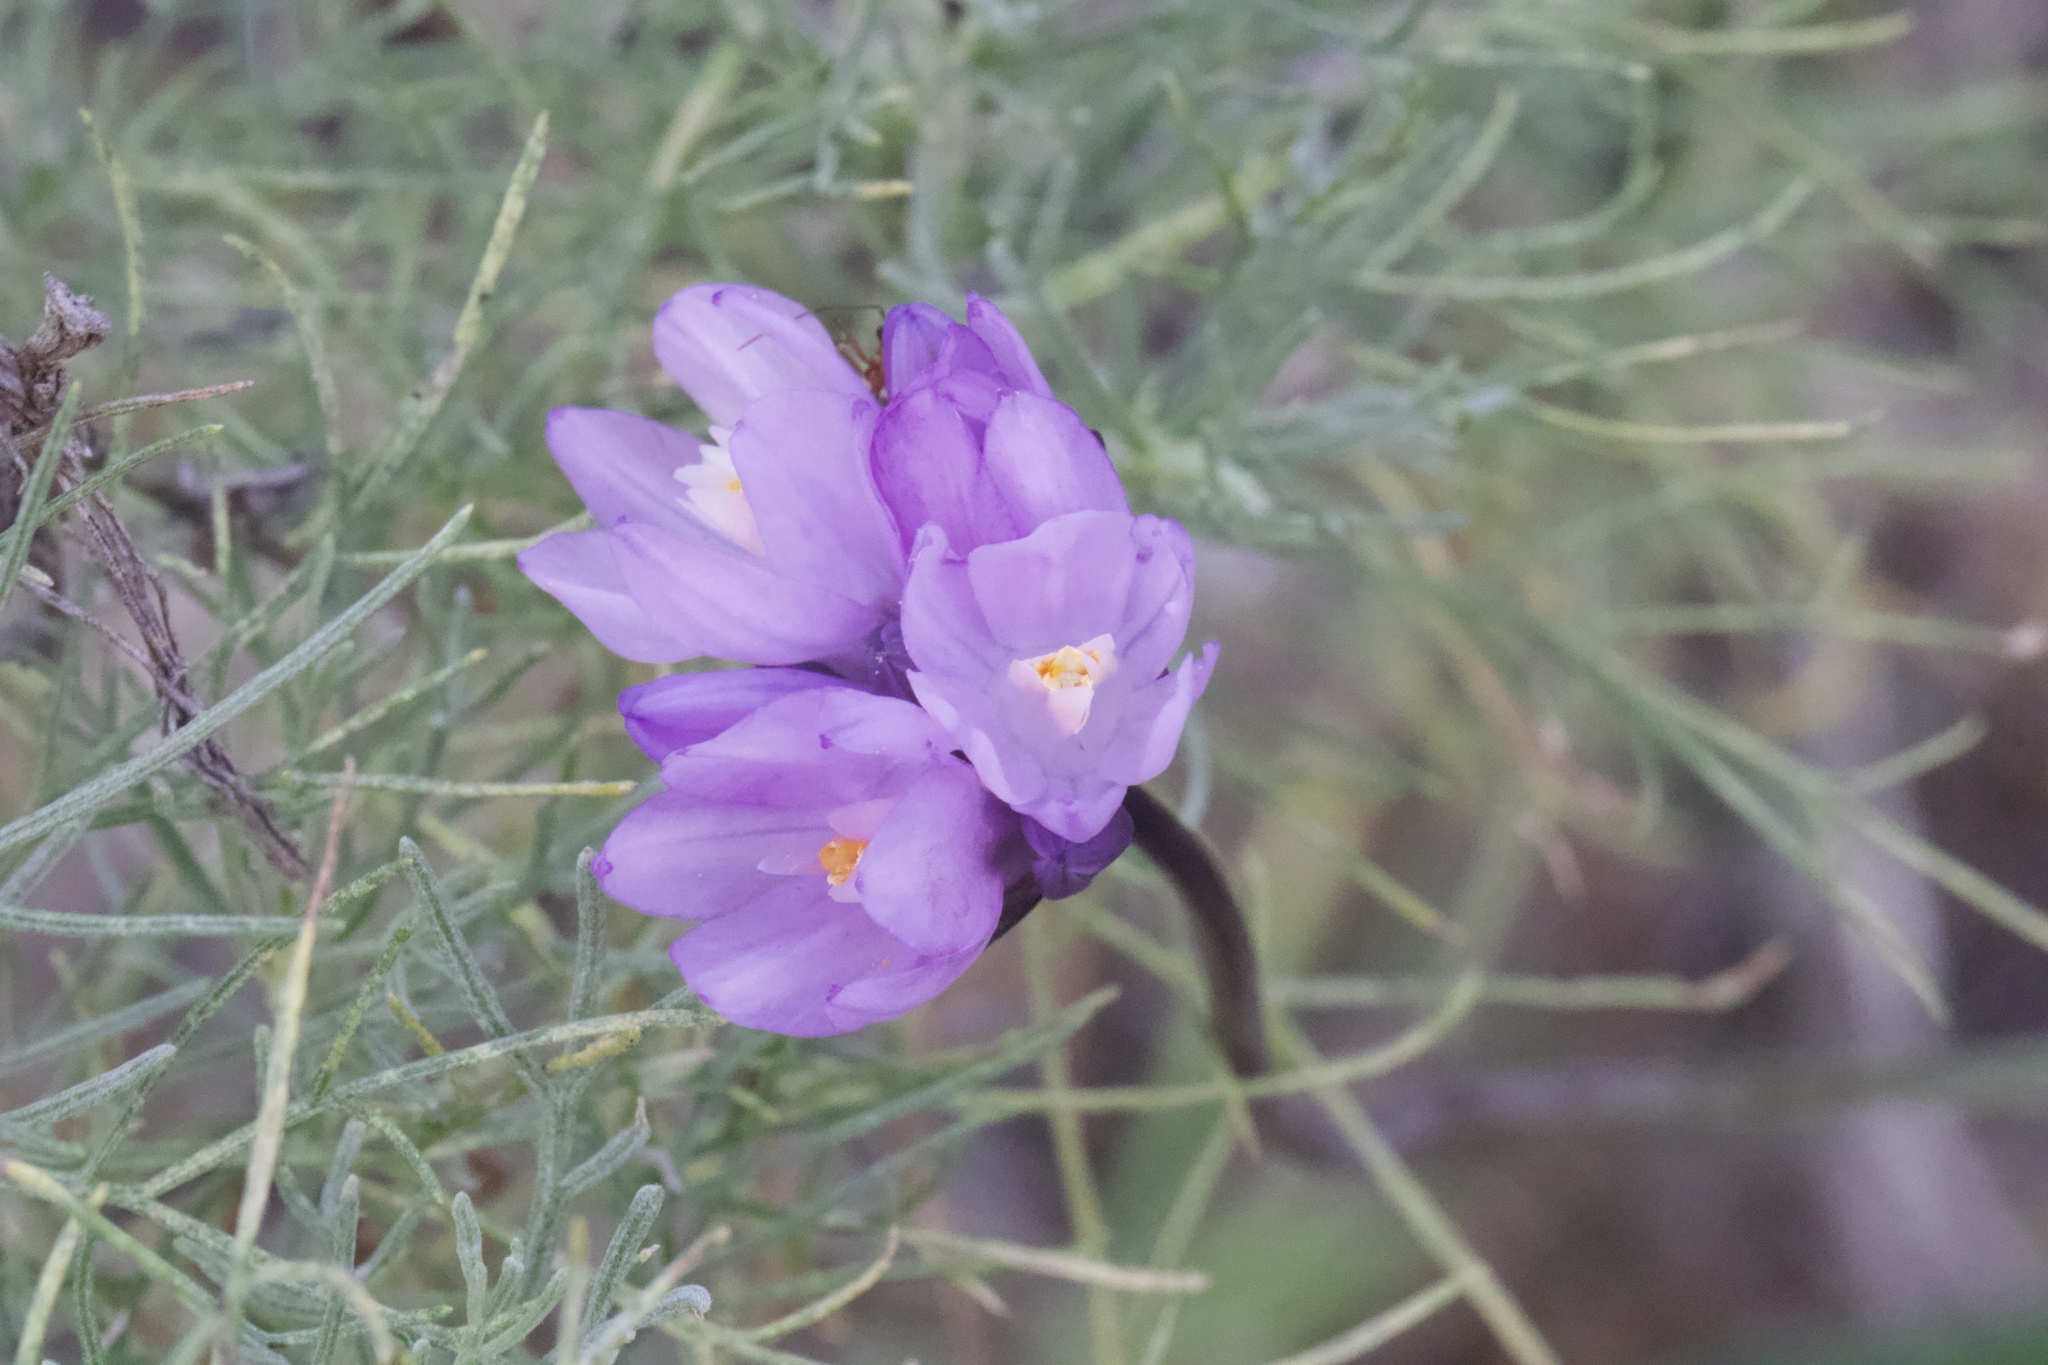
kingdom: Plantae
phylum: Tracheophyta
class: Liliopsida
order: Asparagales
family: Asparagaceae
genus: Dipterostemon
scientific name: Dipterostemon capitatus
